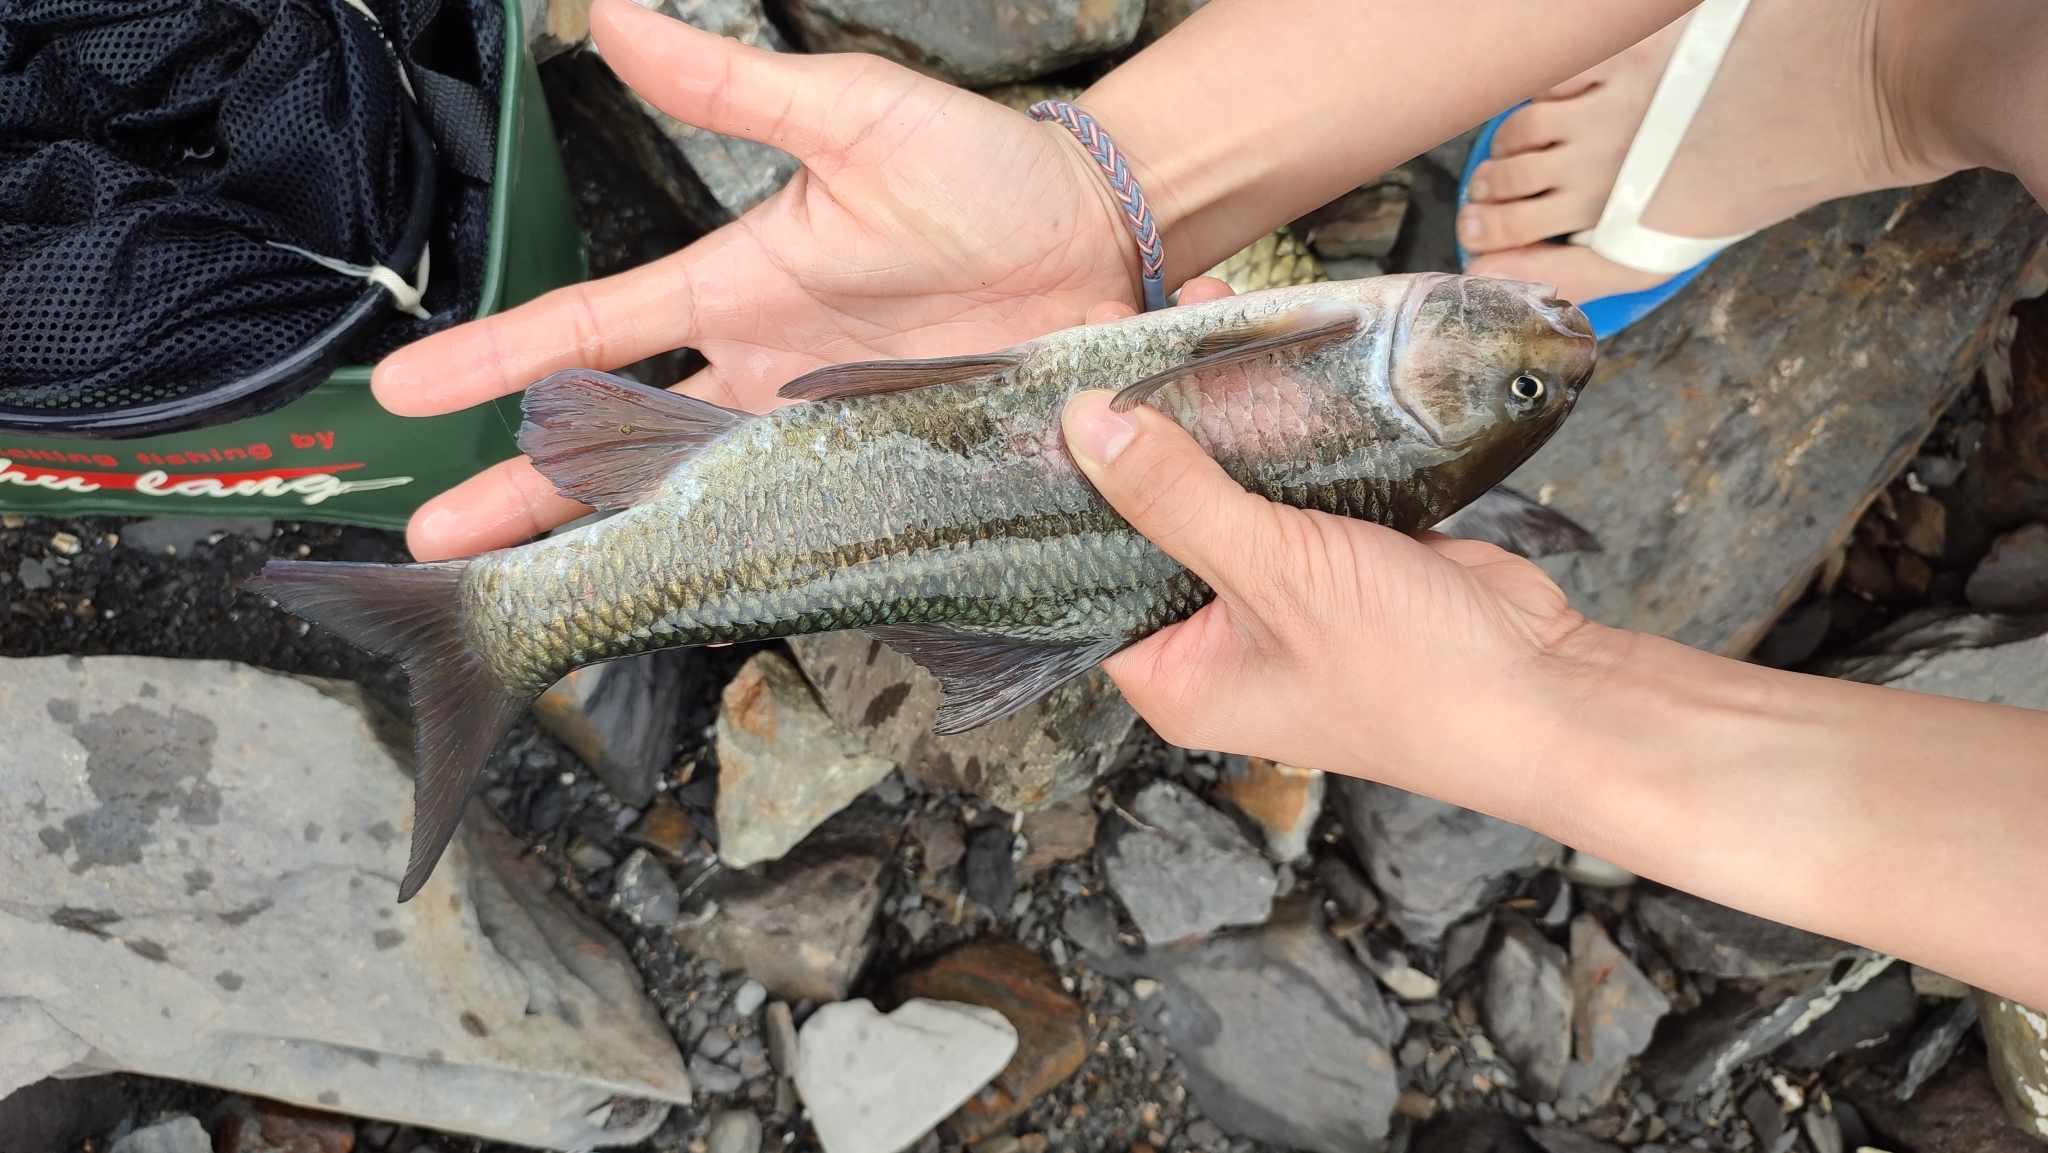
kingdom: Animalia
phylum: Chordata
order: Cypriniformes
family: Cyprinidae
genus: Onychostoma
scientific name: Onychostoma alticorpus
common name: Taiwan ku fish
